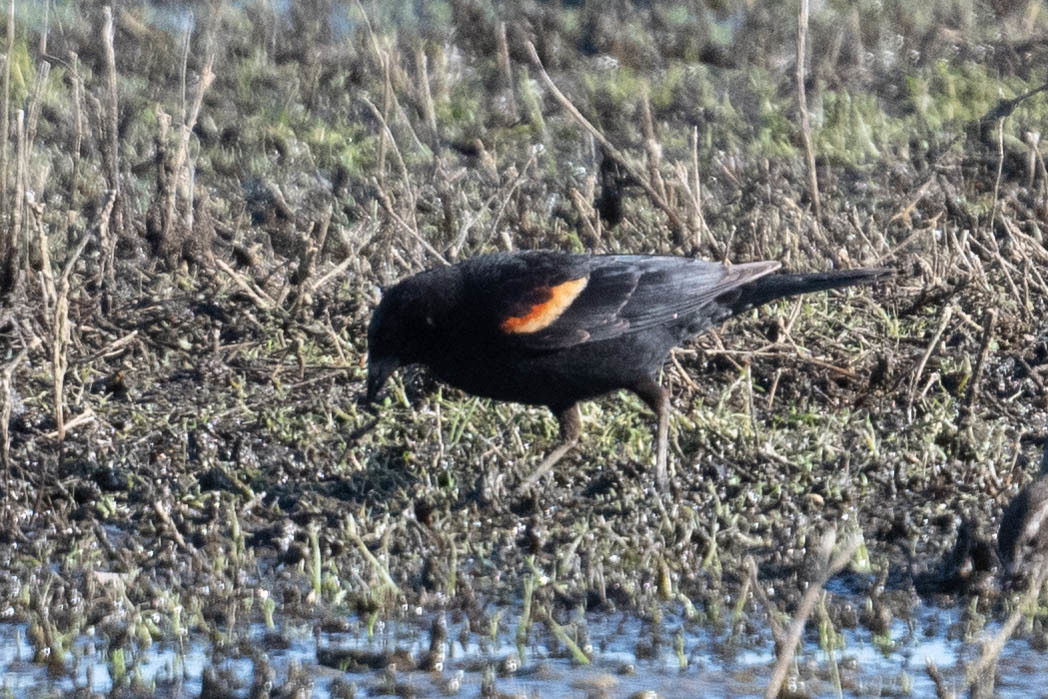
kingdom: Animalia
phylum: Chordata
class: Aves
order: Passeriformes
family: Icteridae
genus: Agelaius
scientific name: Agelaius phoeniceus
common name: Red-winged blackbird
